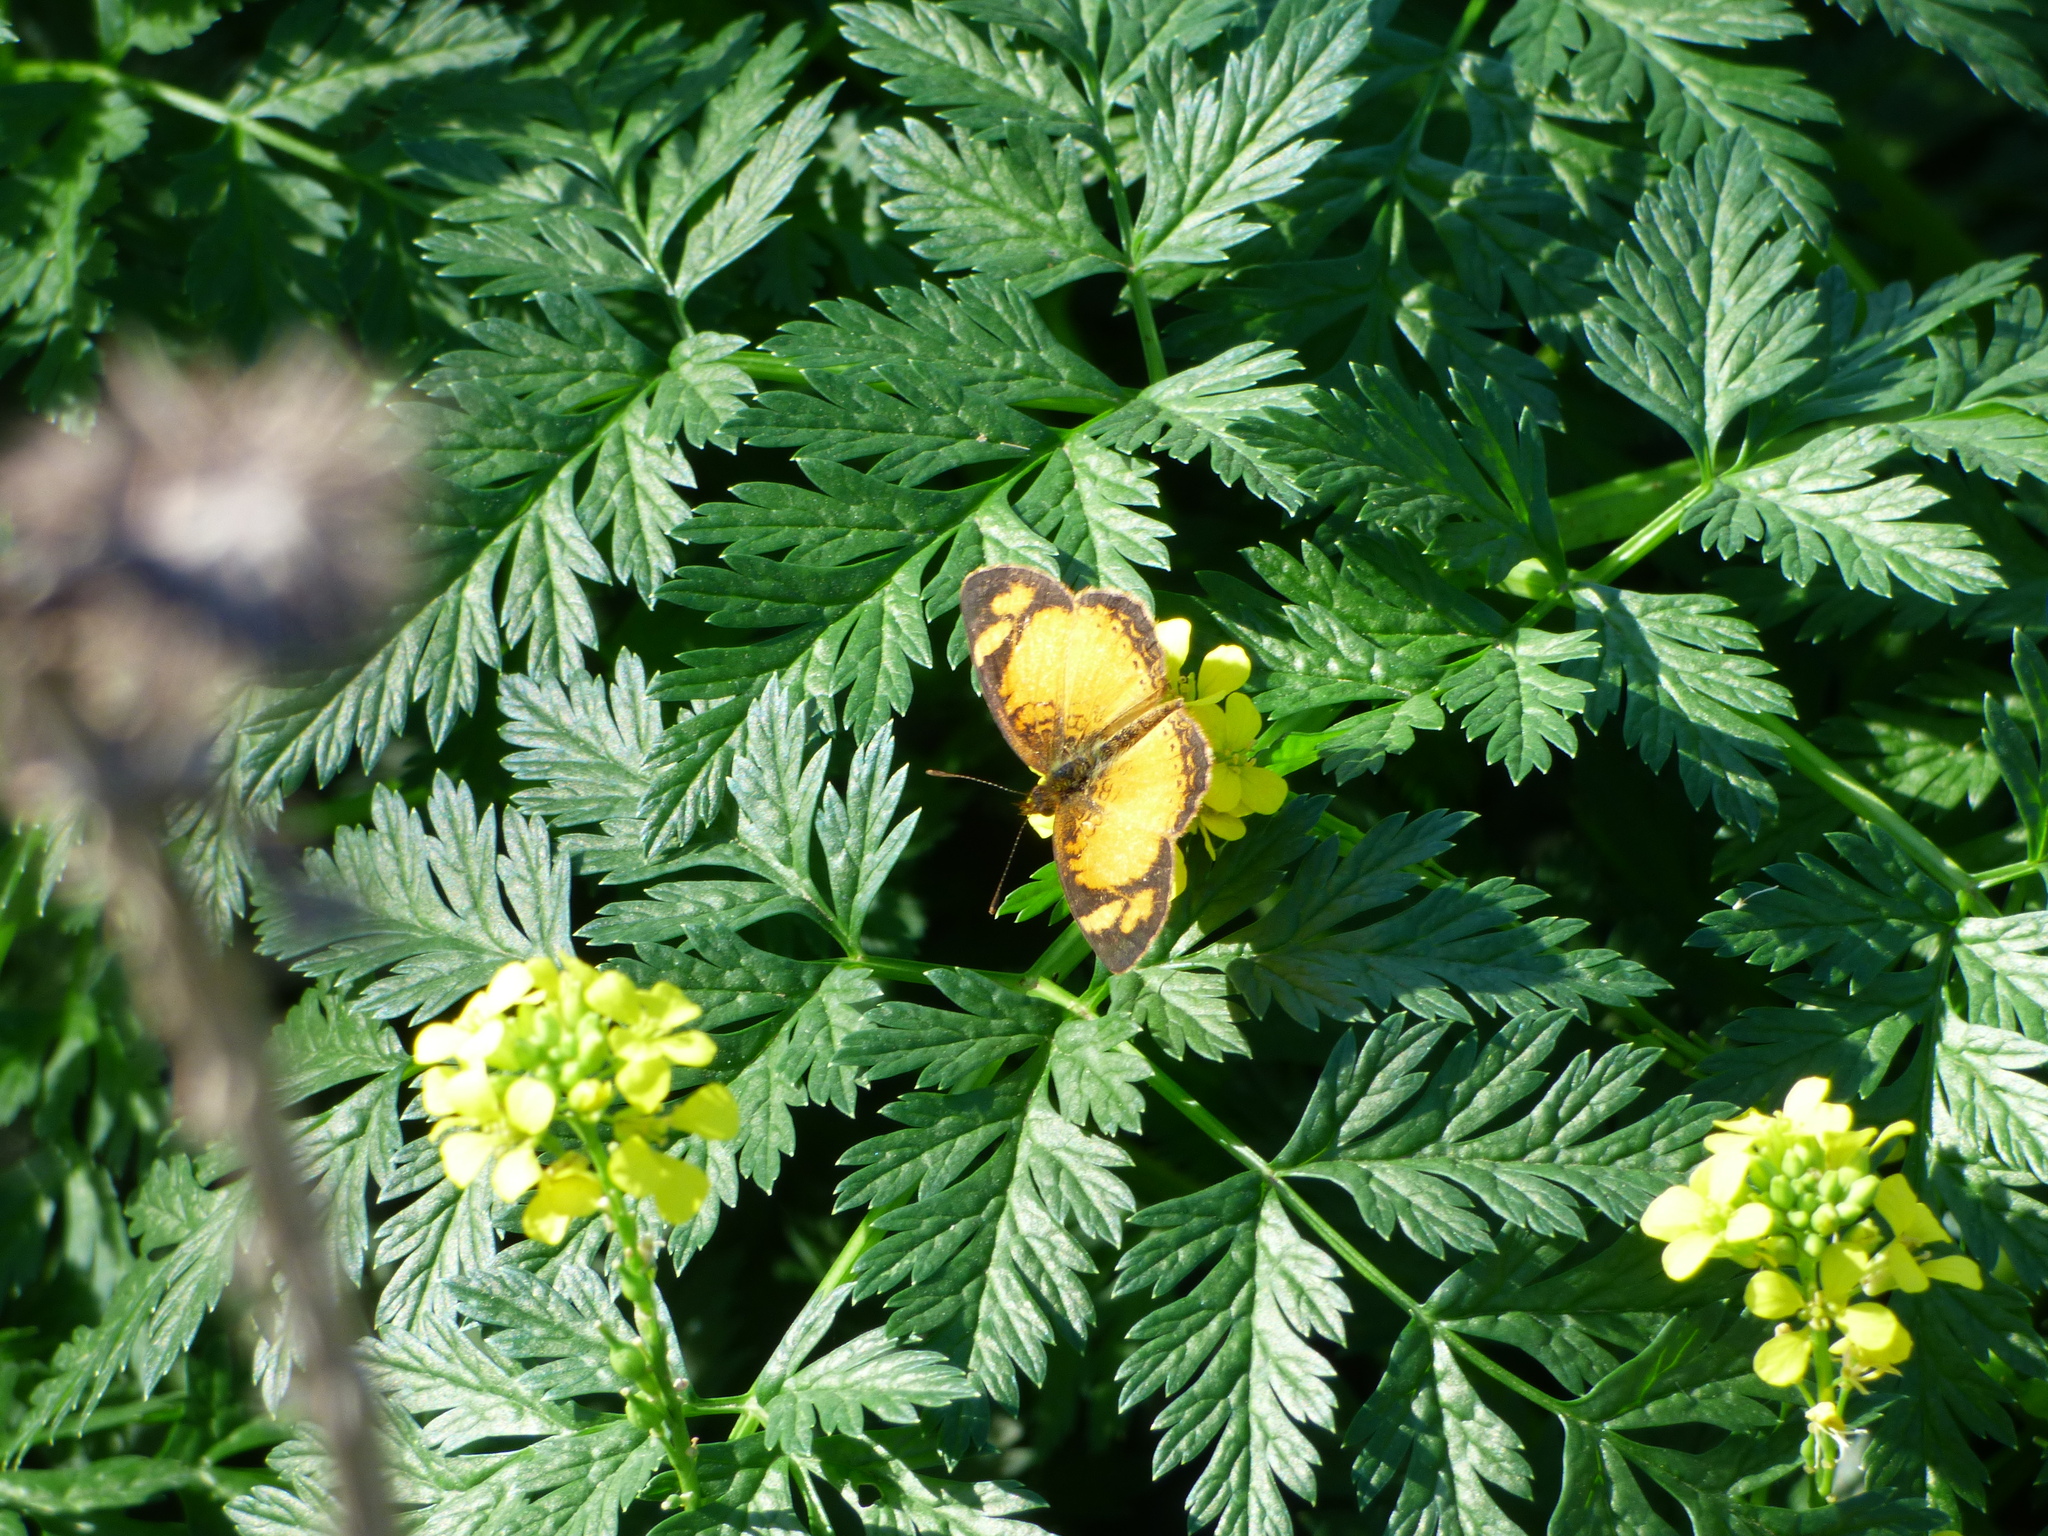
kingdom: Animalia
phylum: Arthropoda
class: Insecta
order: Lepidoptera
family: Nymphalidae
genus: Tegosa
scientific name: Tegosa claudina
